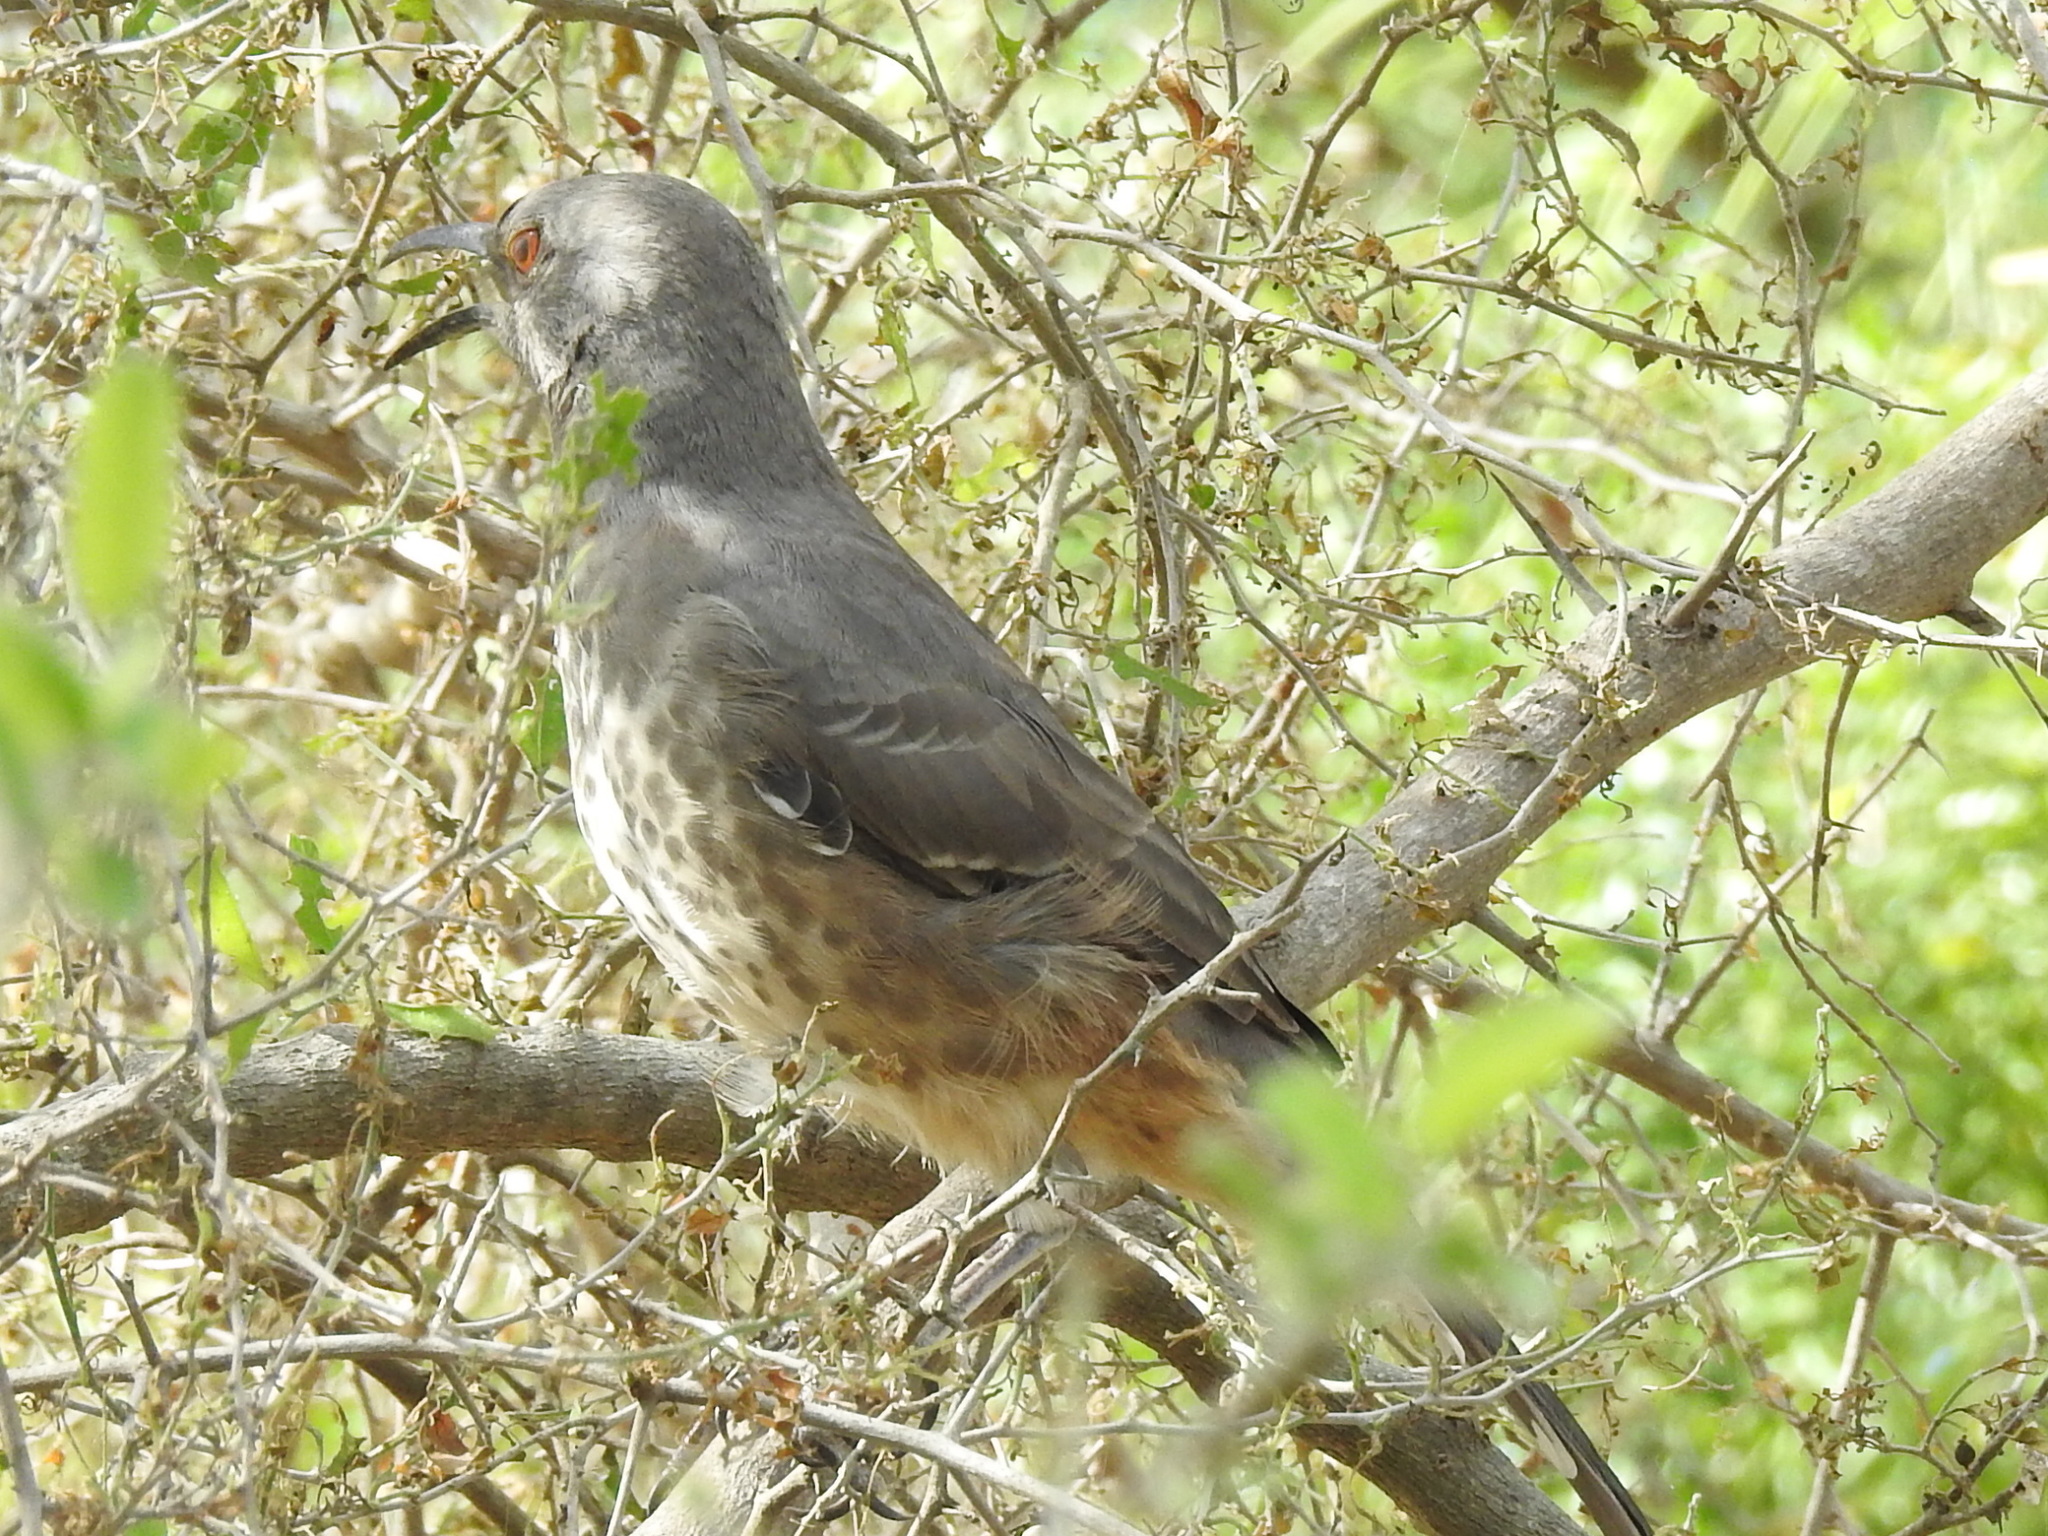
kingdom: Animalia
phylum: Chordata
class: Aves
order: Passeriformes
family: Mimidae
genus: Toxostoma
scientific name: Toxostoma curvirostre
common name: Curve-billed thrasher
